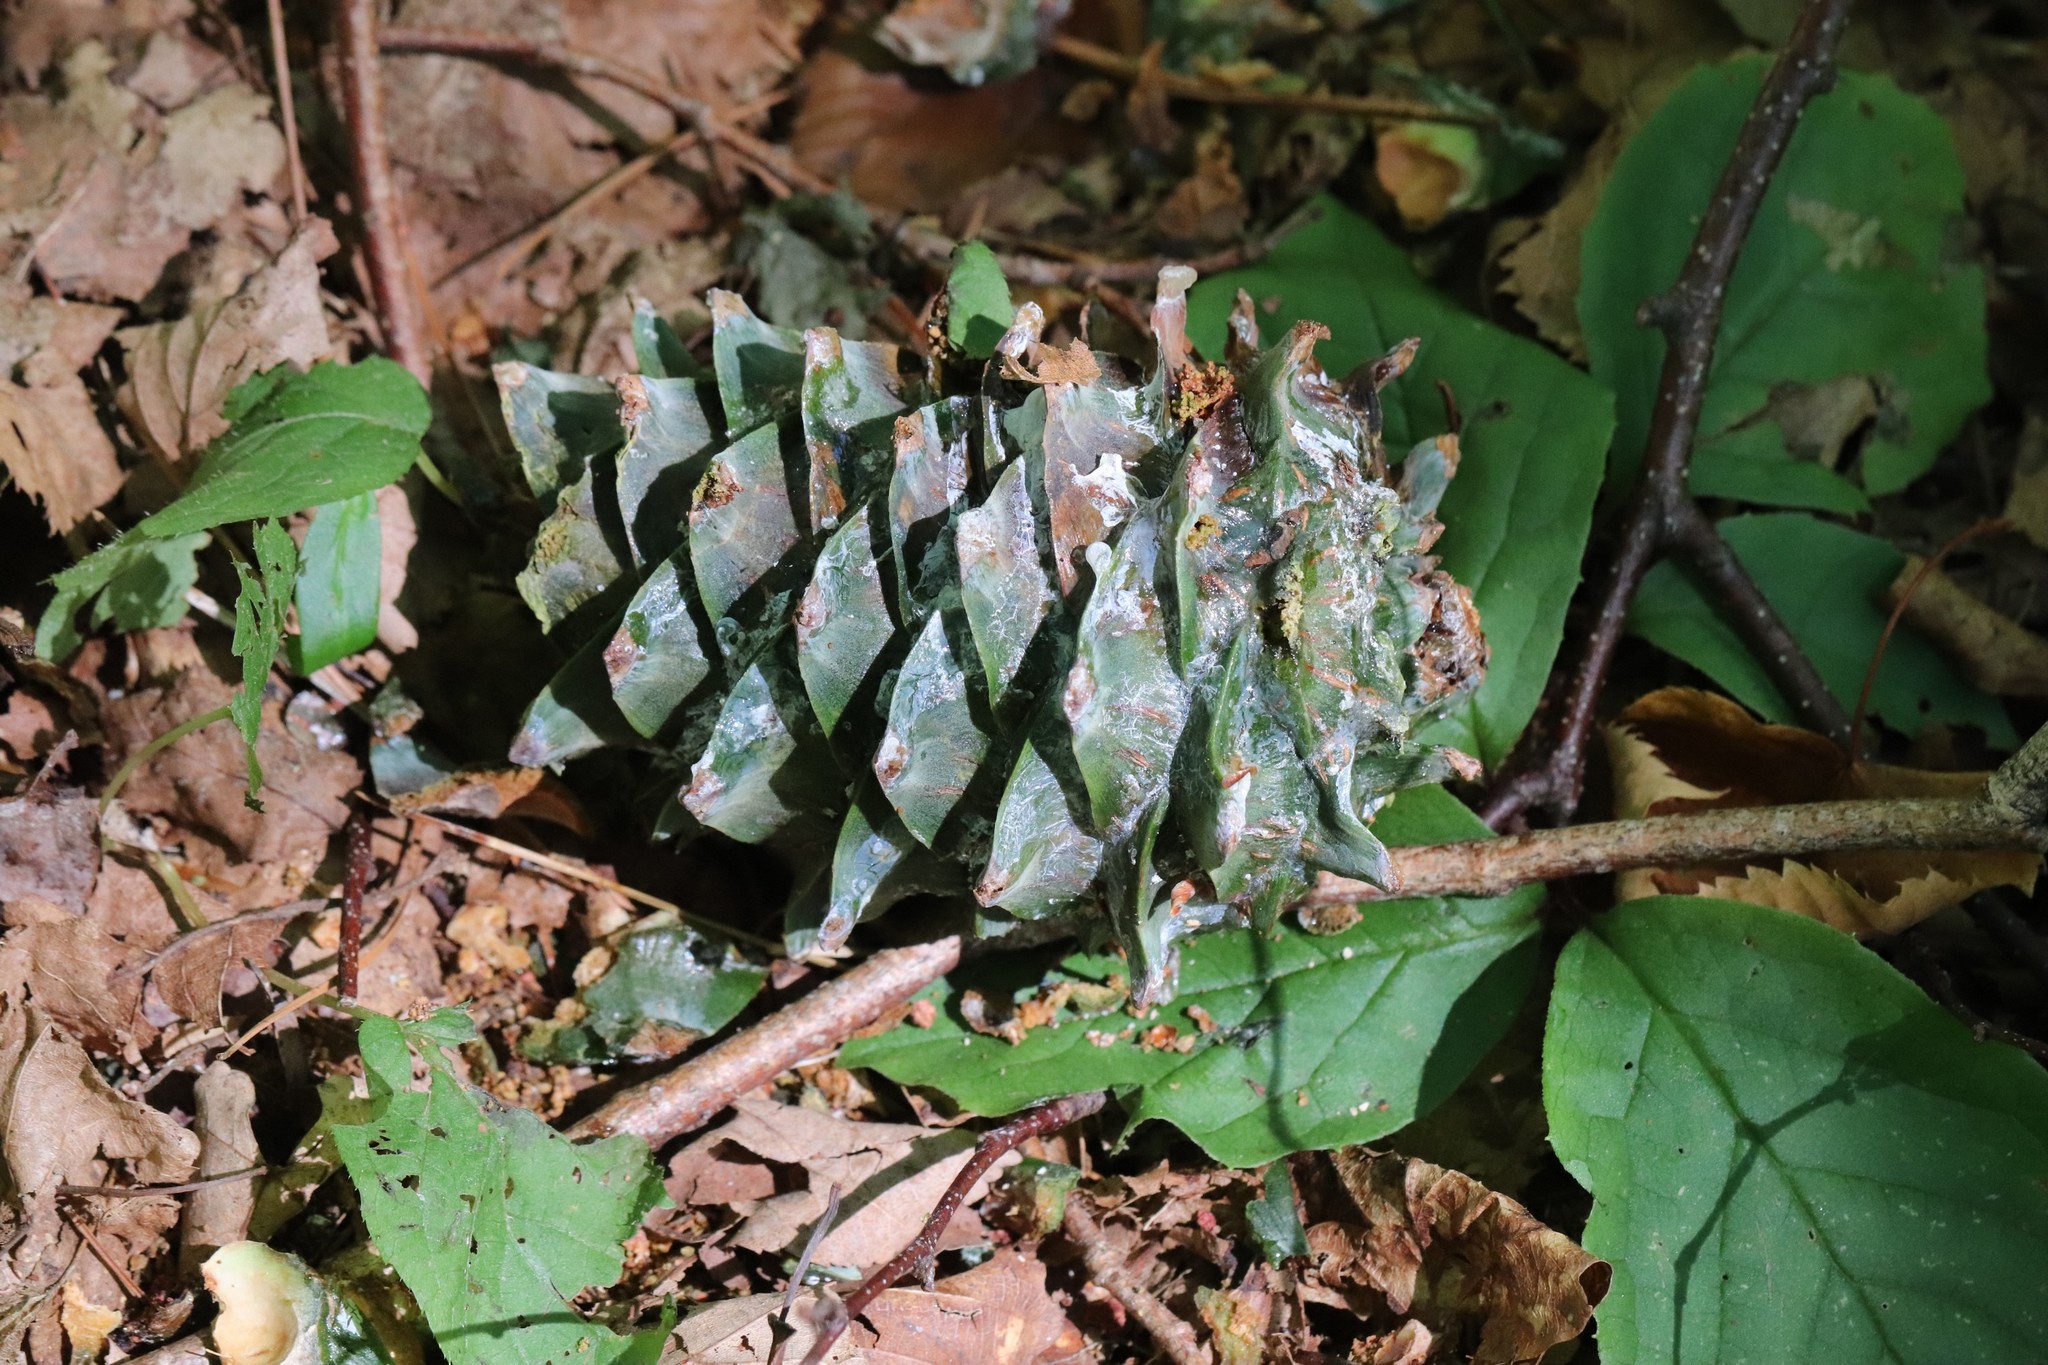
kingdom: Plantae
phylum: Tracheophyta
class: Pinopsida
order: Pinales
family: Pinaceae
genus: Pinus
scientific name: Pinus koraiensis
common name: Korean pine
